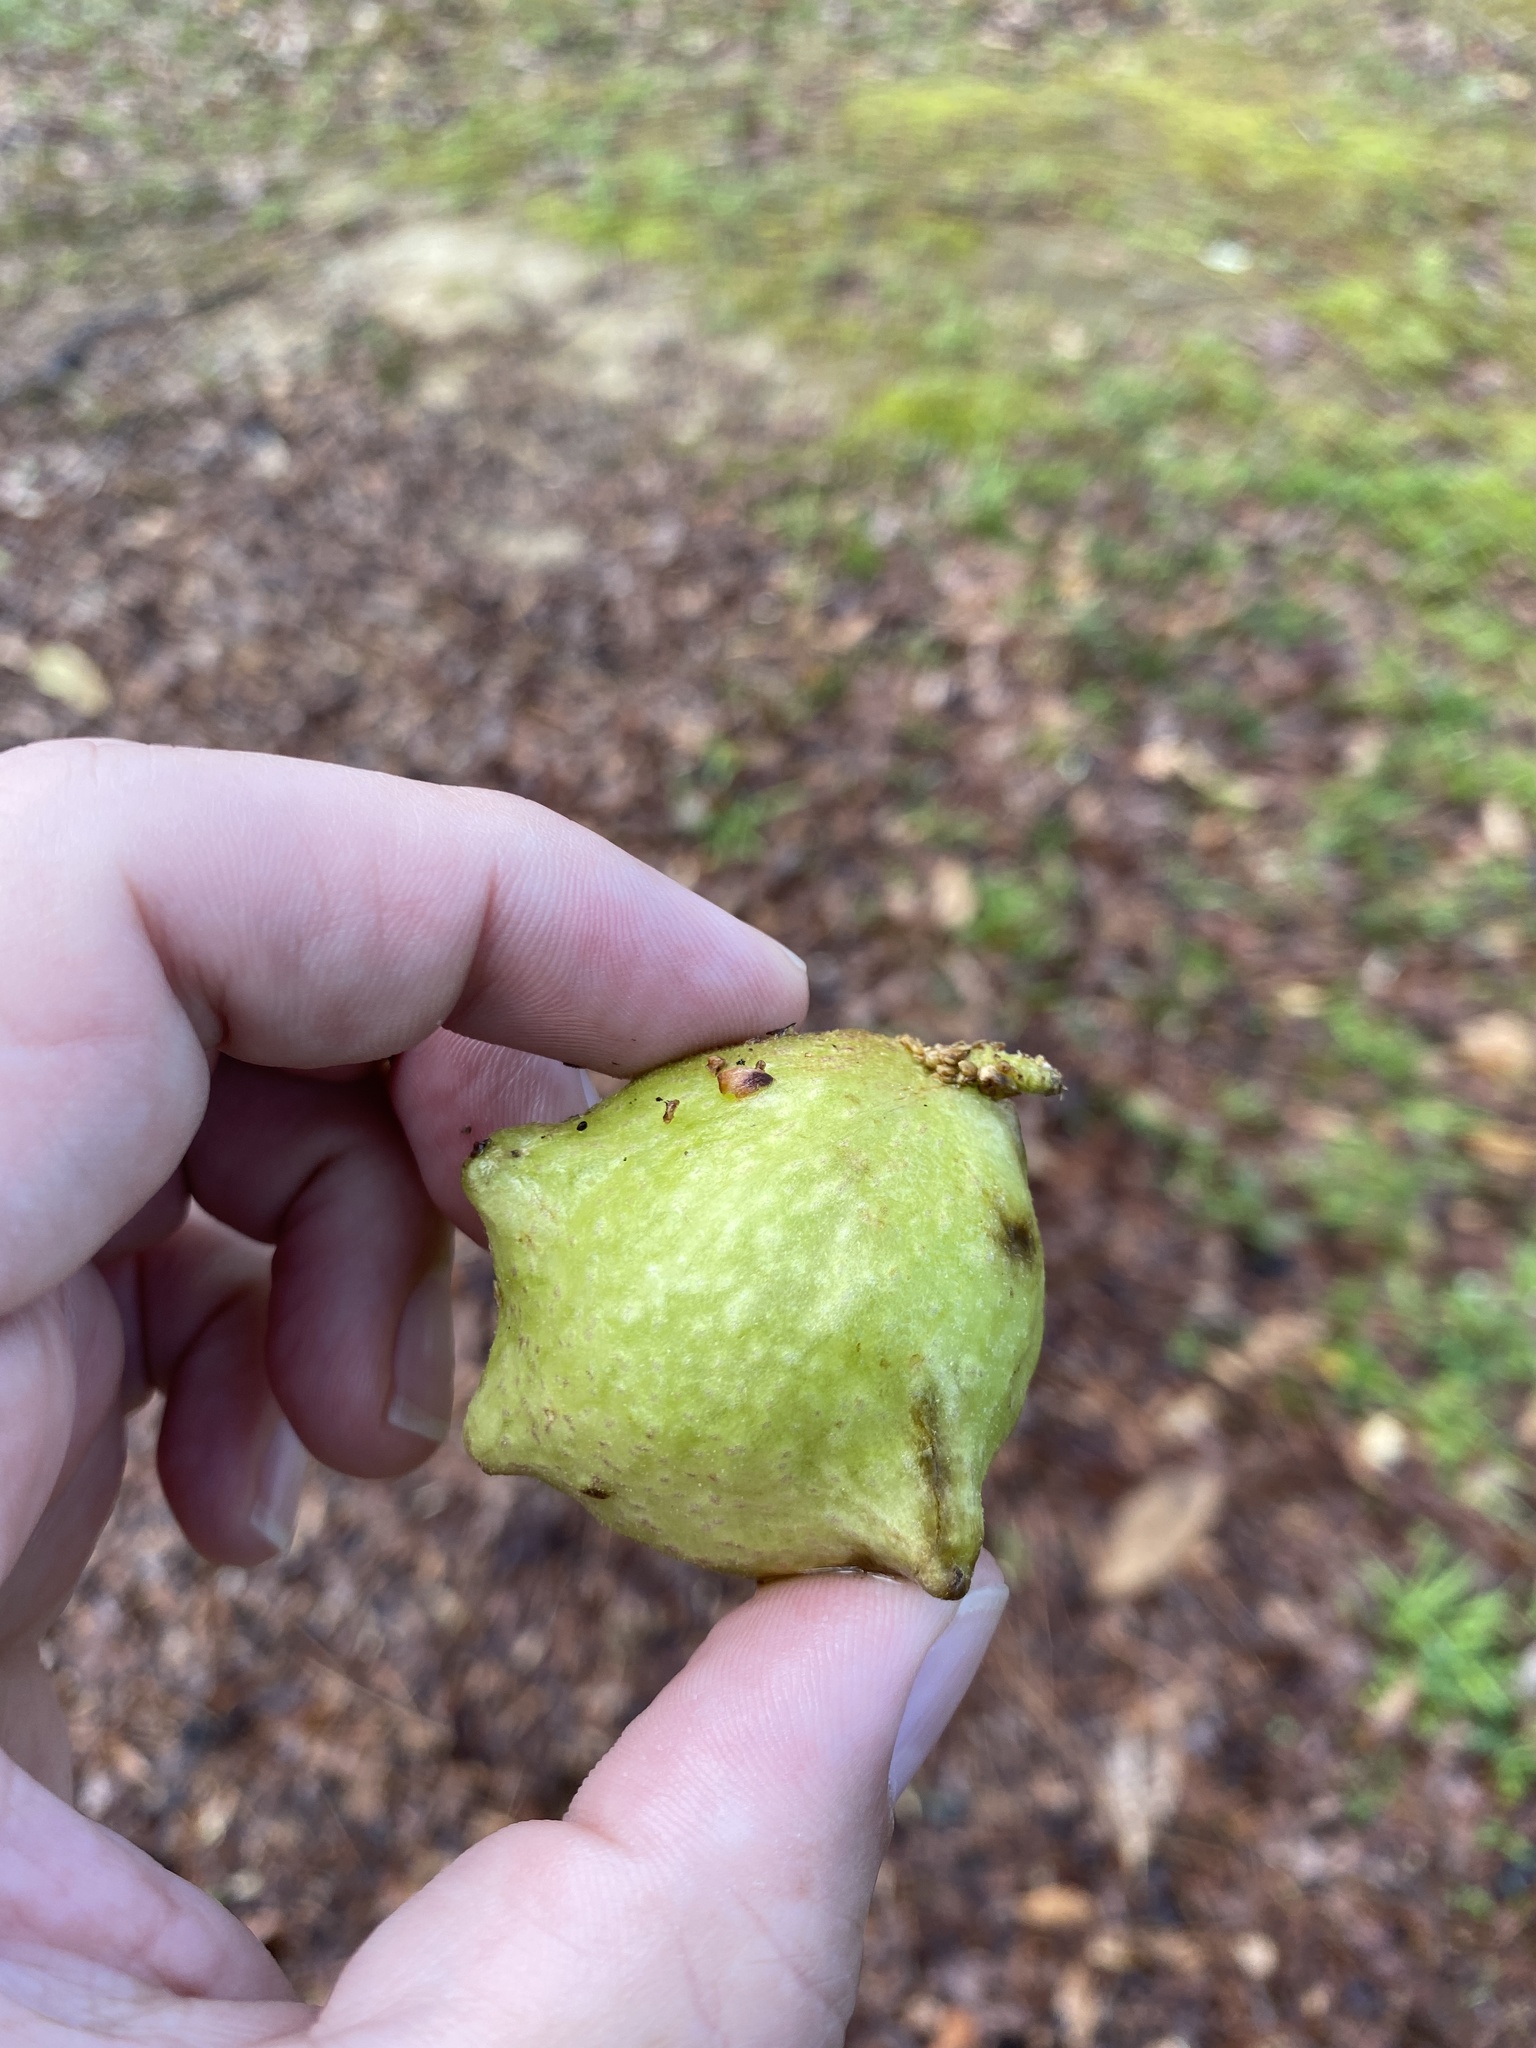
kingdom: Animalia
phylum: Arthropoda
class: Insecta
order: Hymenoptera
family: Cynipidae
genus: Amphibolips
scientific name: Amphibolips
